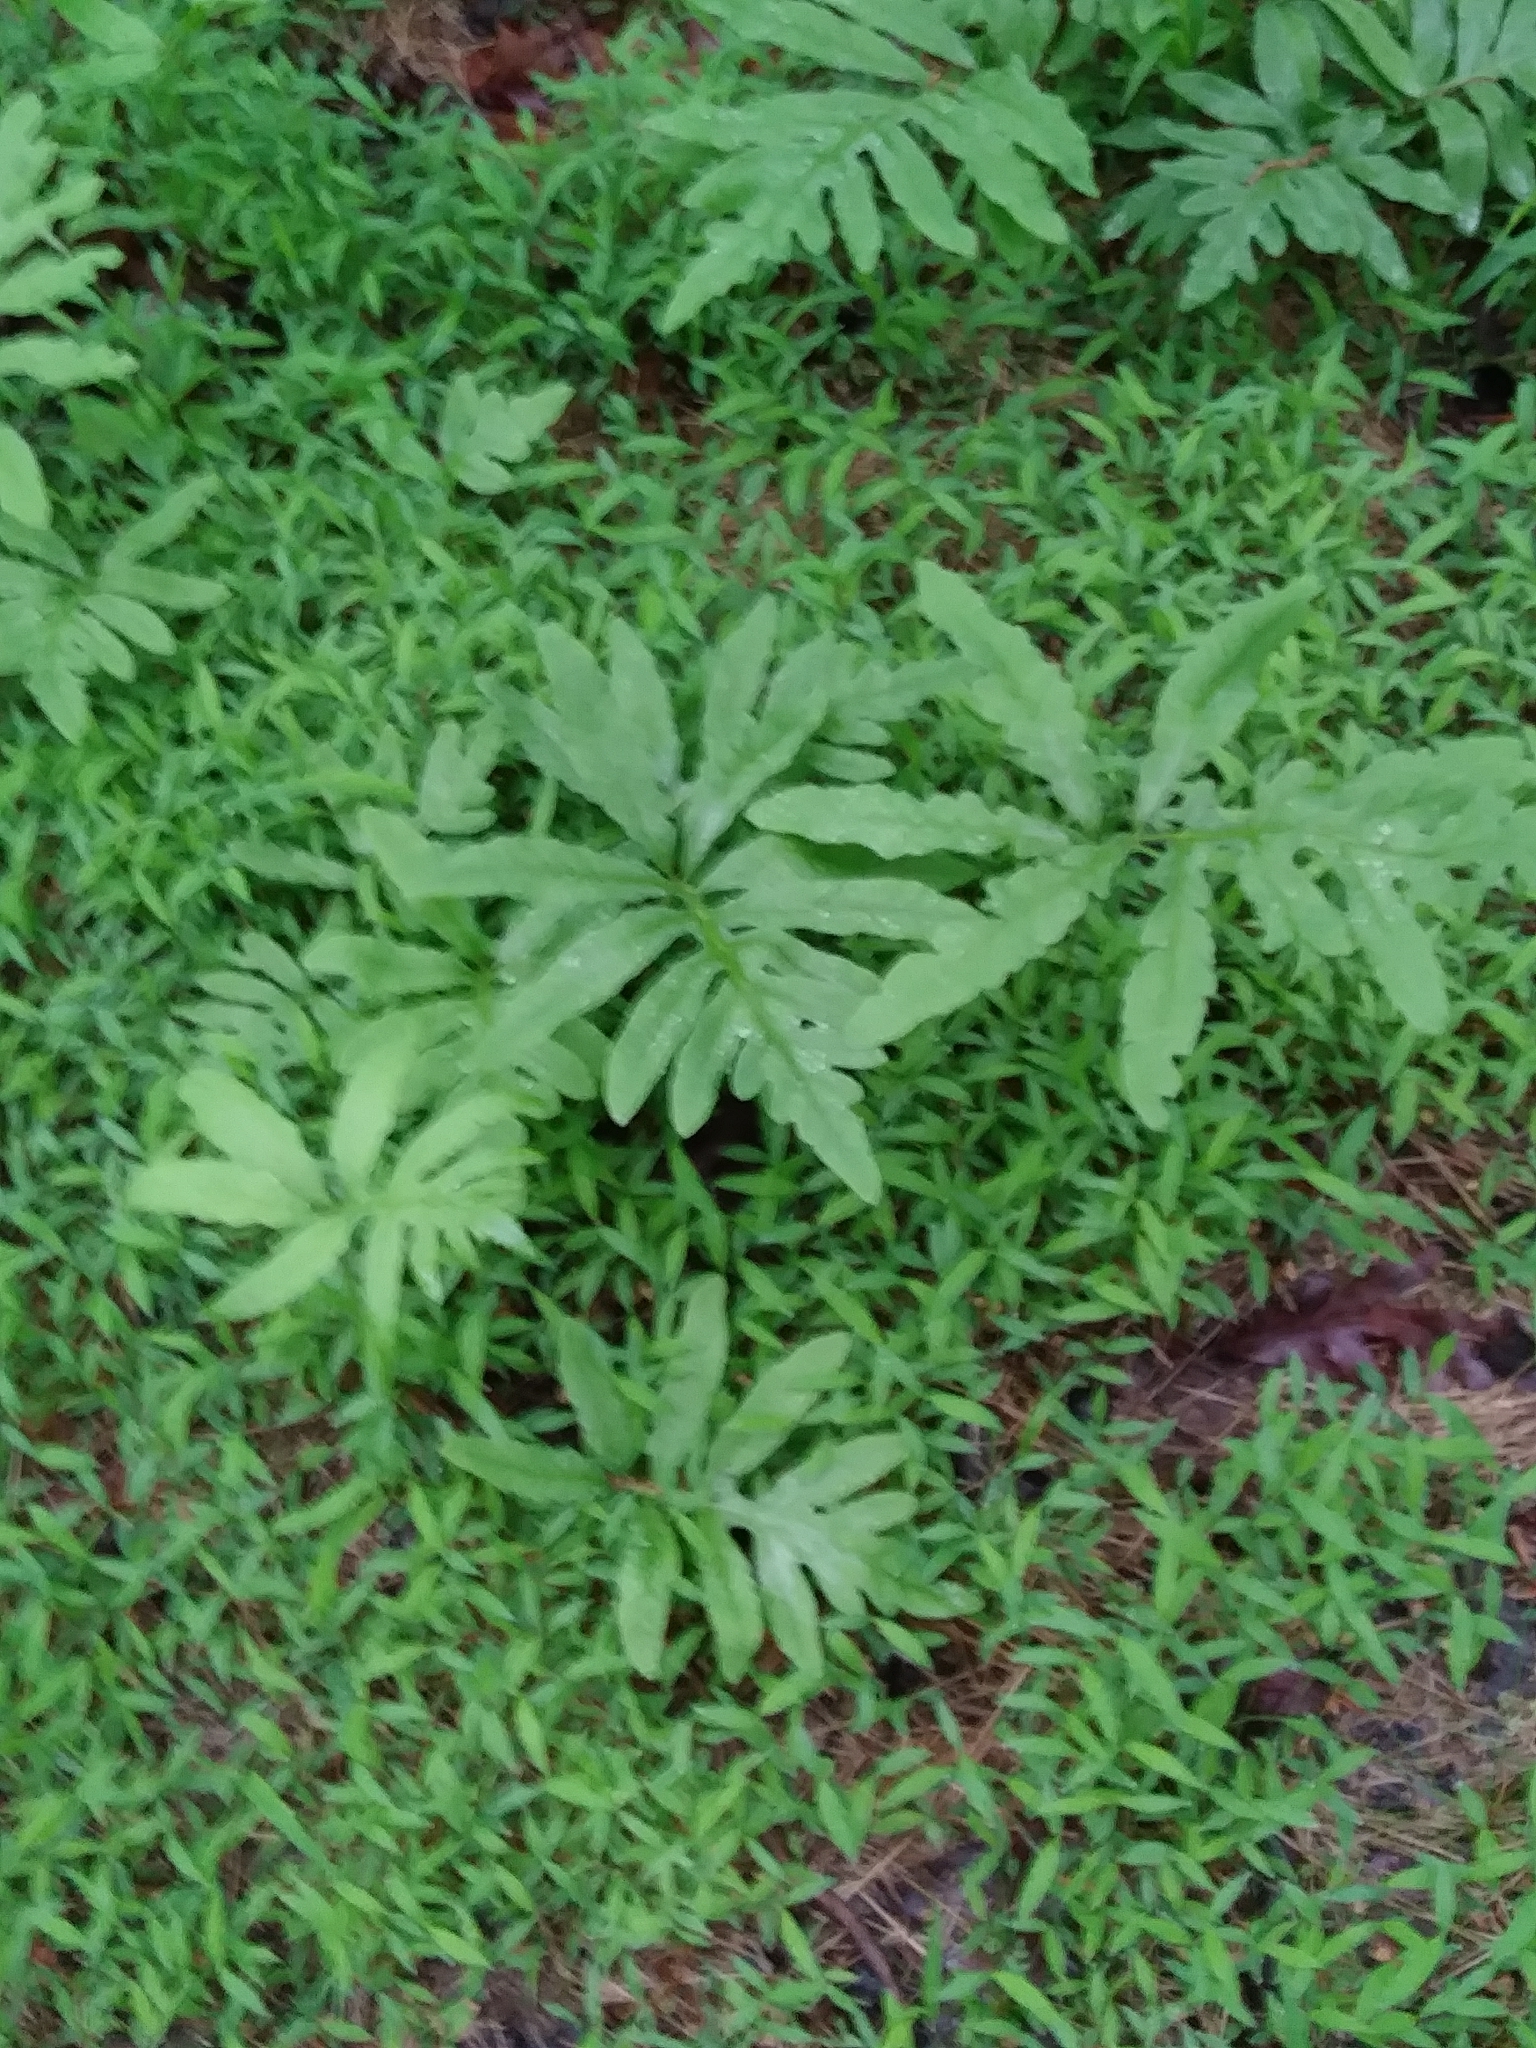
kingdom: Plantae
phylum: Tracheophyta
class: Polypodiopsida
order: Polypodiales
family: Onocleaceae
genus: Onoclea
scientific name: Onoclea sensibilis
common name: Sensitive fern
